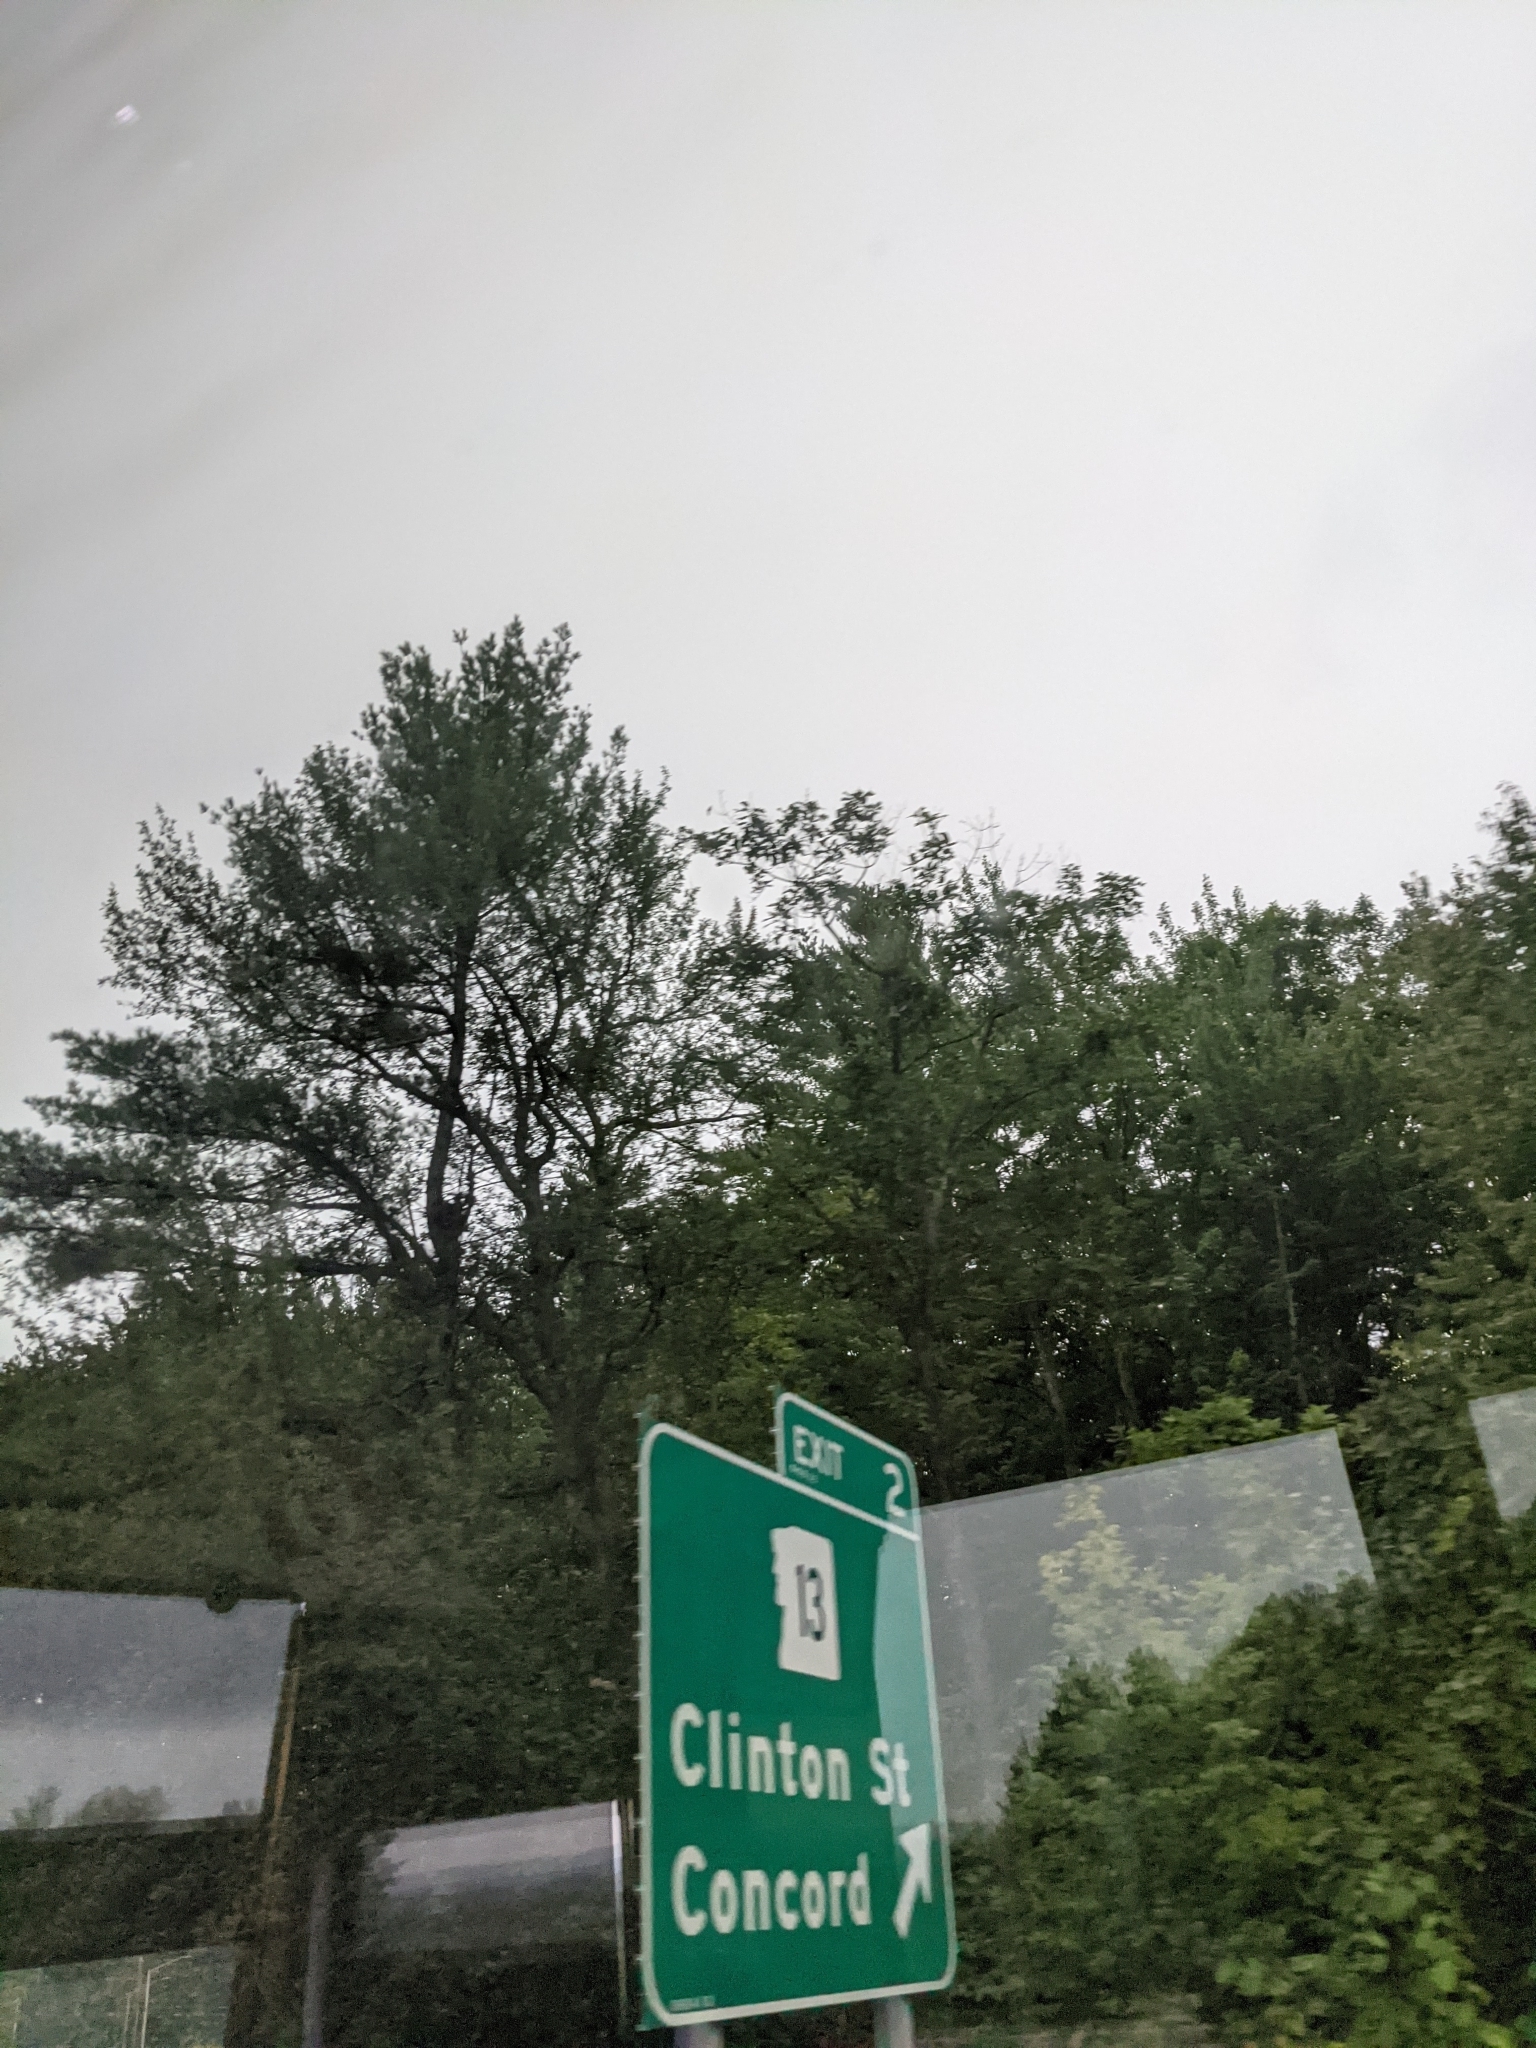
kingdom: Plantae
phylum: Tracheophyta
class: Pinopsida
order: Pinales
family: Pinaceae
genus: Pinus
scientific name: Pinus strobus
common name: Weymouth pine
